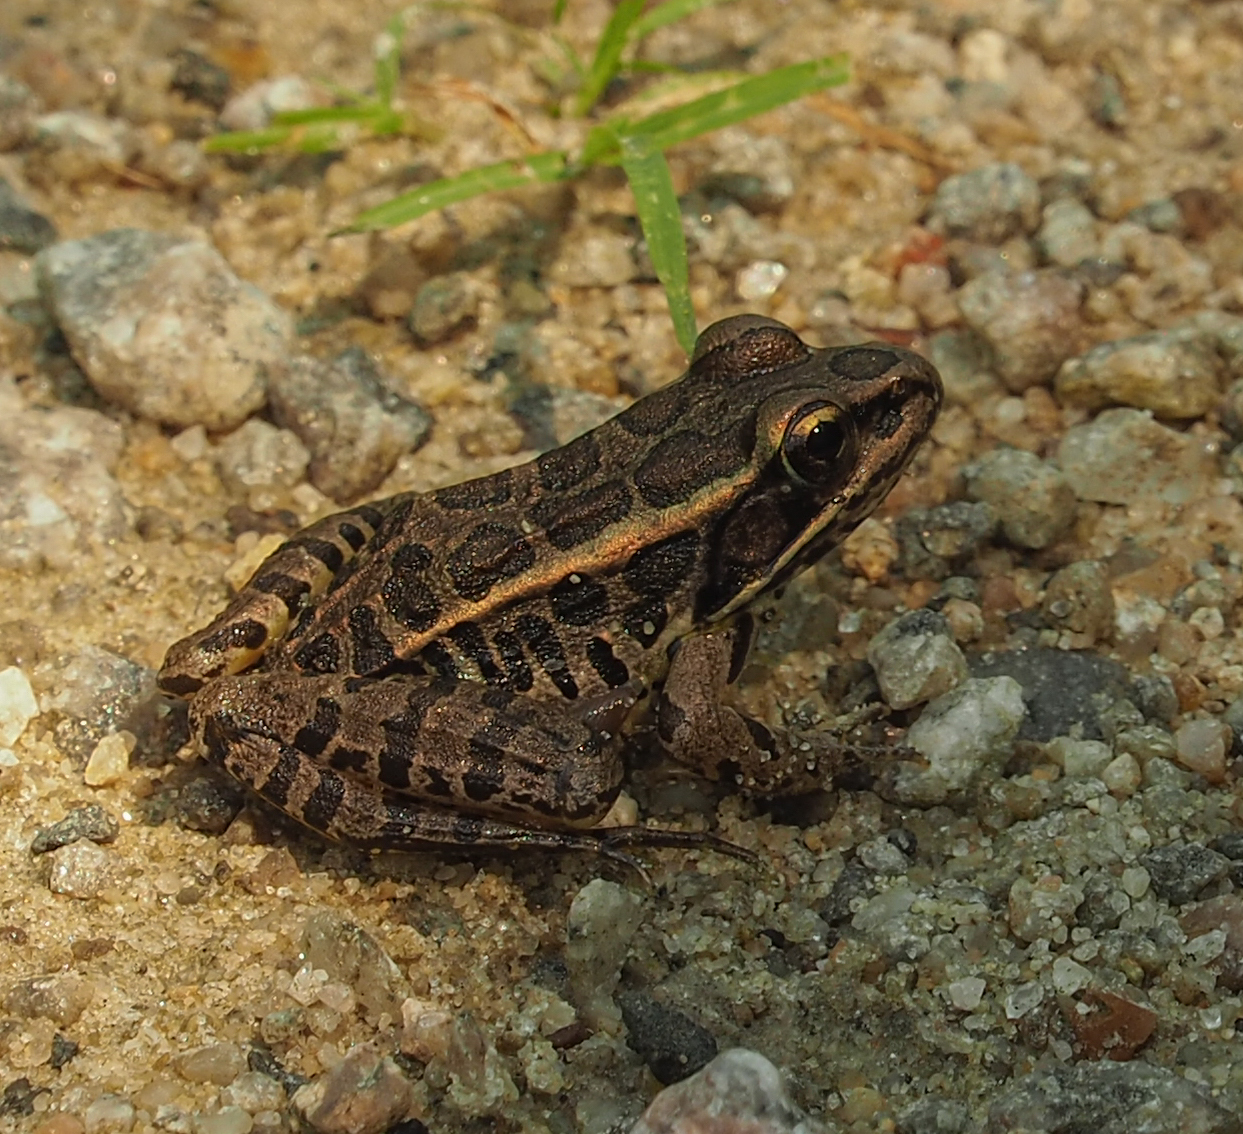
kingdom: Animalia
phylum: Chordata
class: Amphibia
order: Anura
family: Ranidae
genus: Lithobates
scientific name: Lithobates palustris
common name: Pickerel frog
